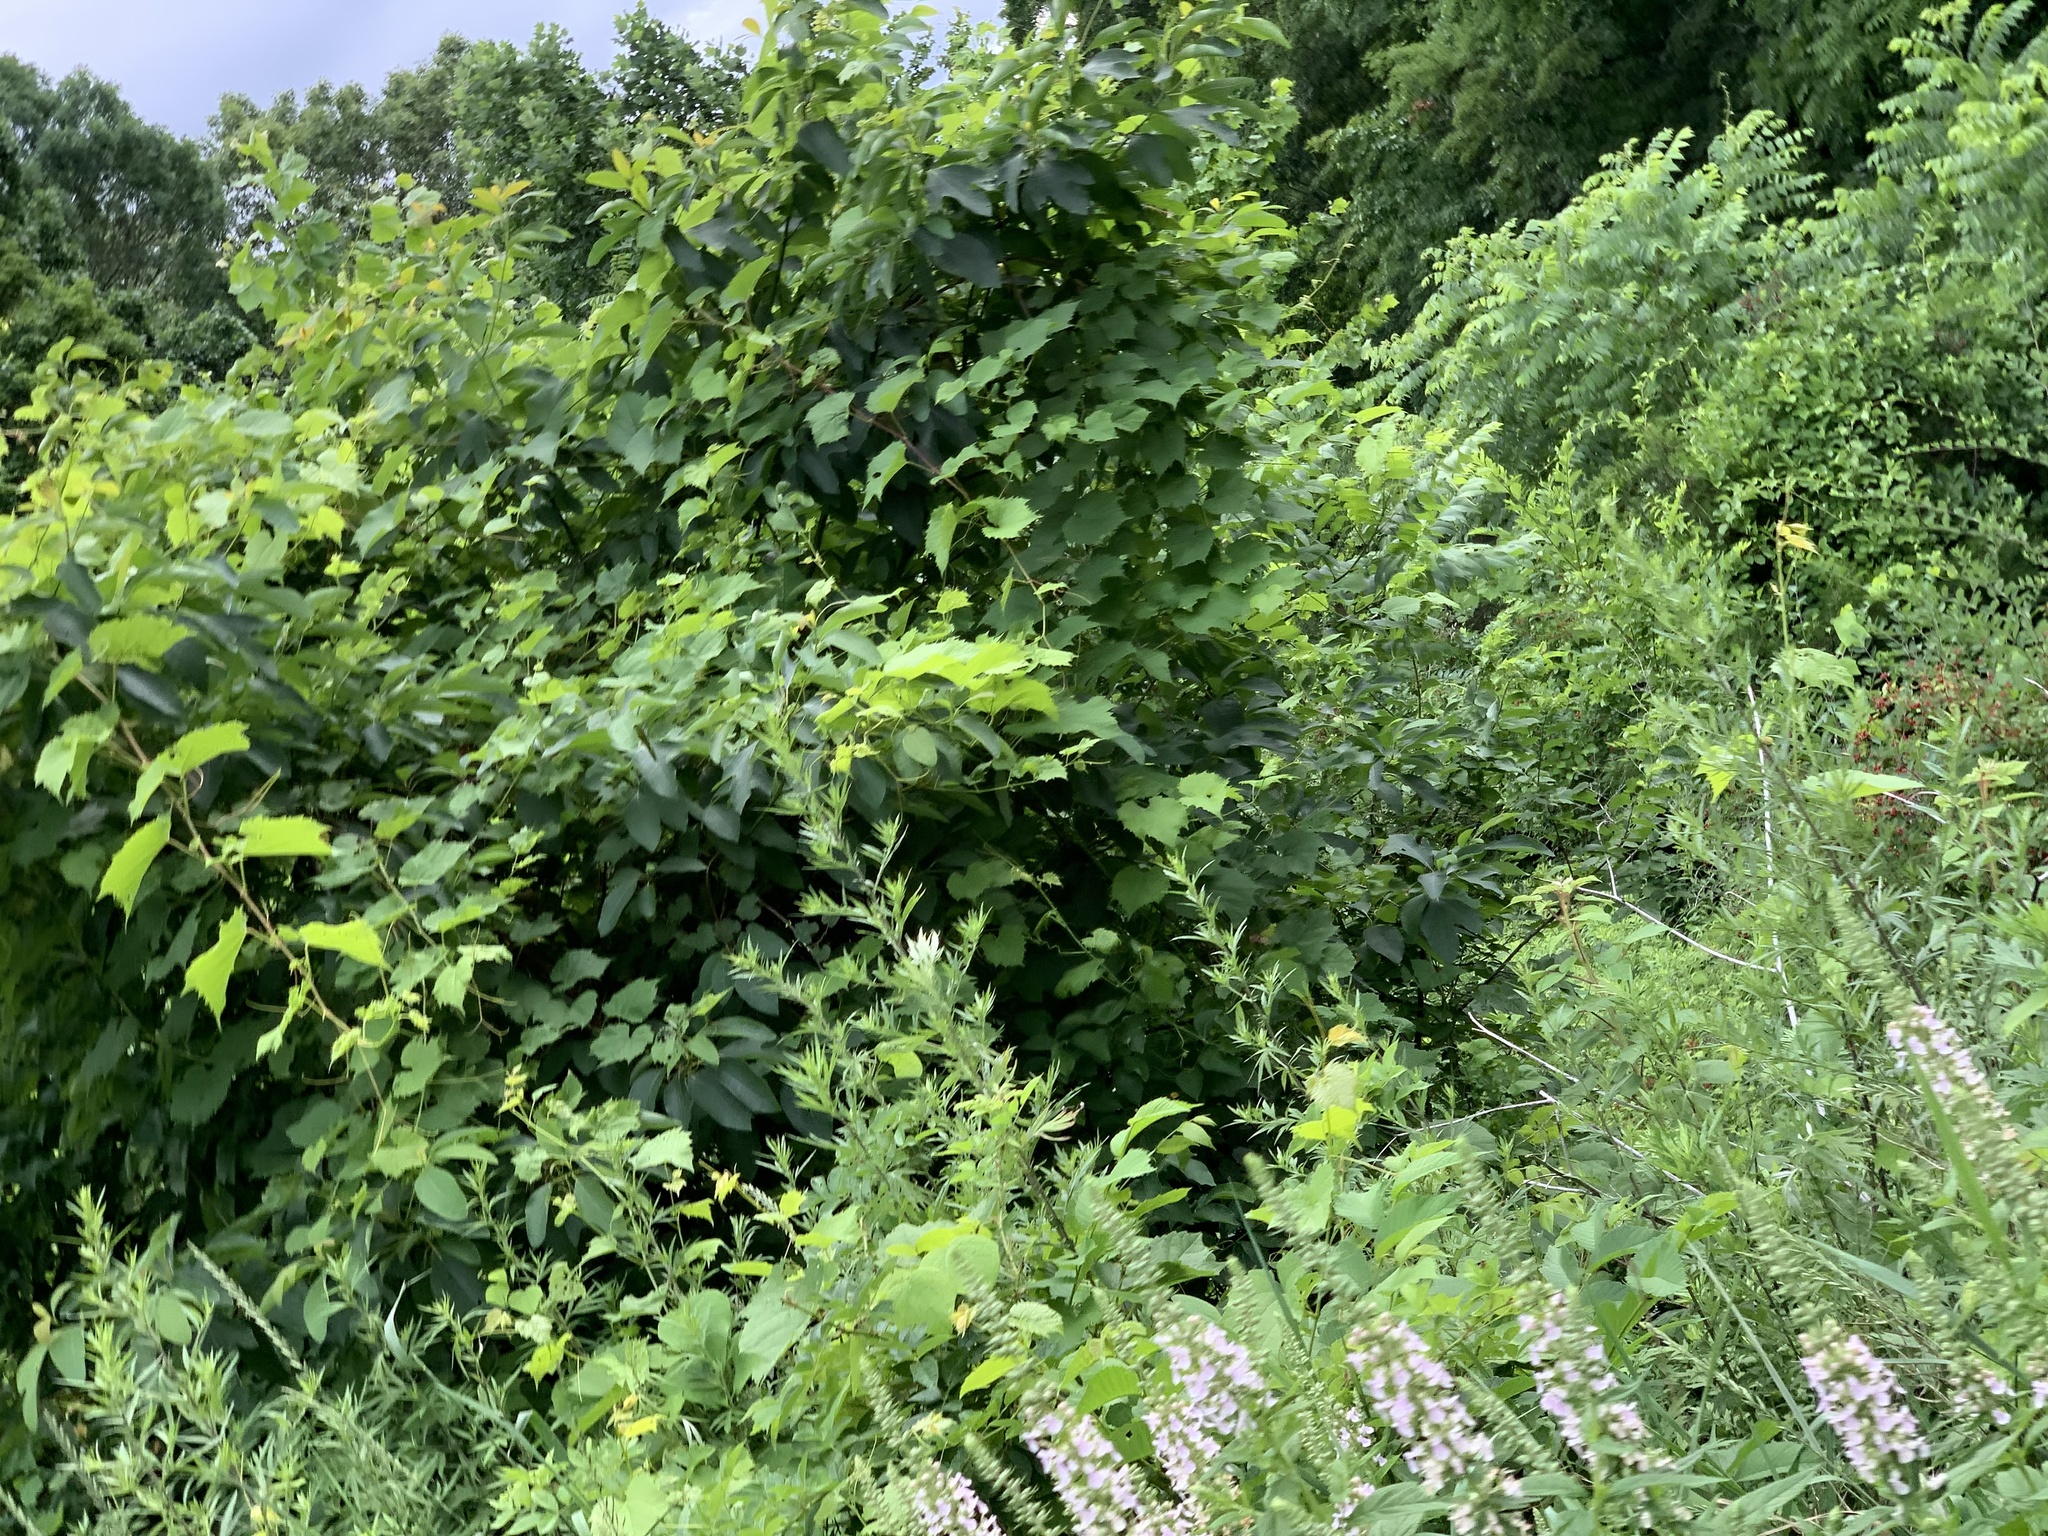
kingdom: Plantae
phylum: Tracheophyta
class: Magnoliopsida
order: Lamiales
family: Lamiaceae
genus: Teucrium
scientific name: Teucrium canadense
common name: American germander
